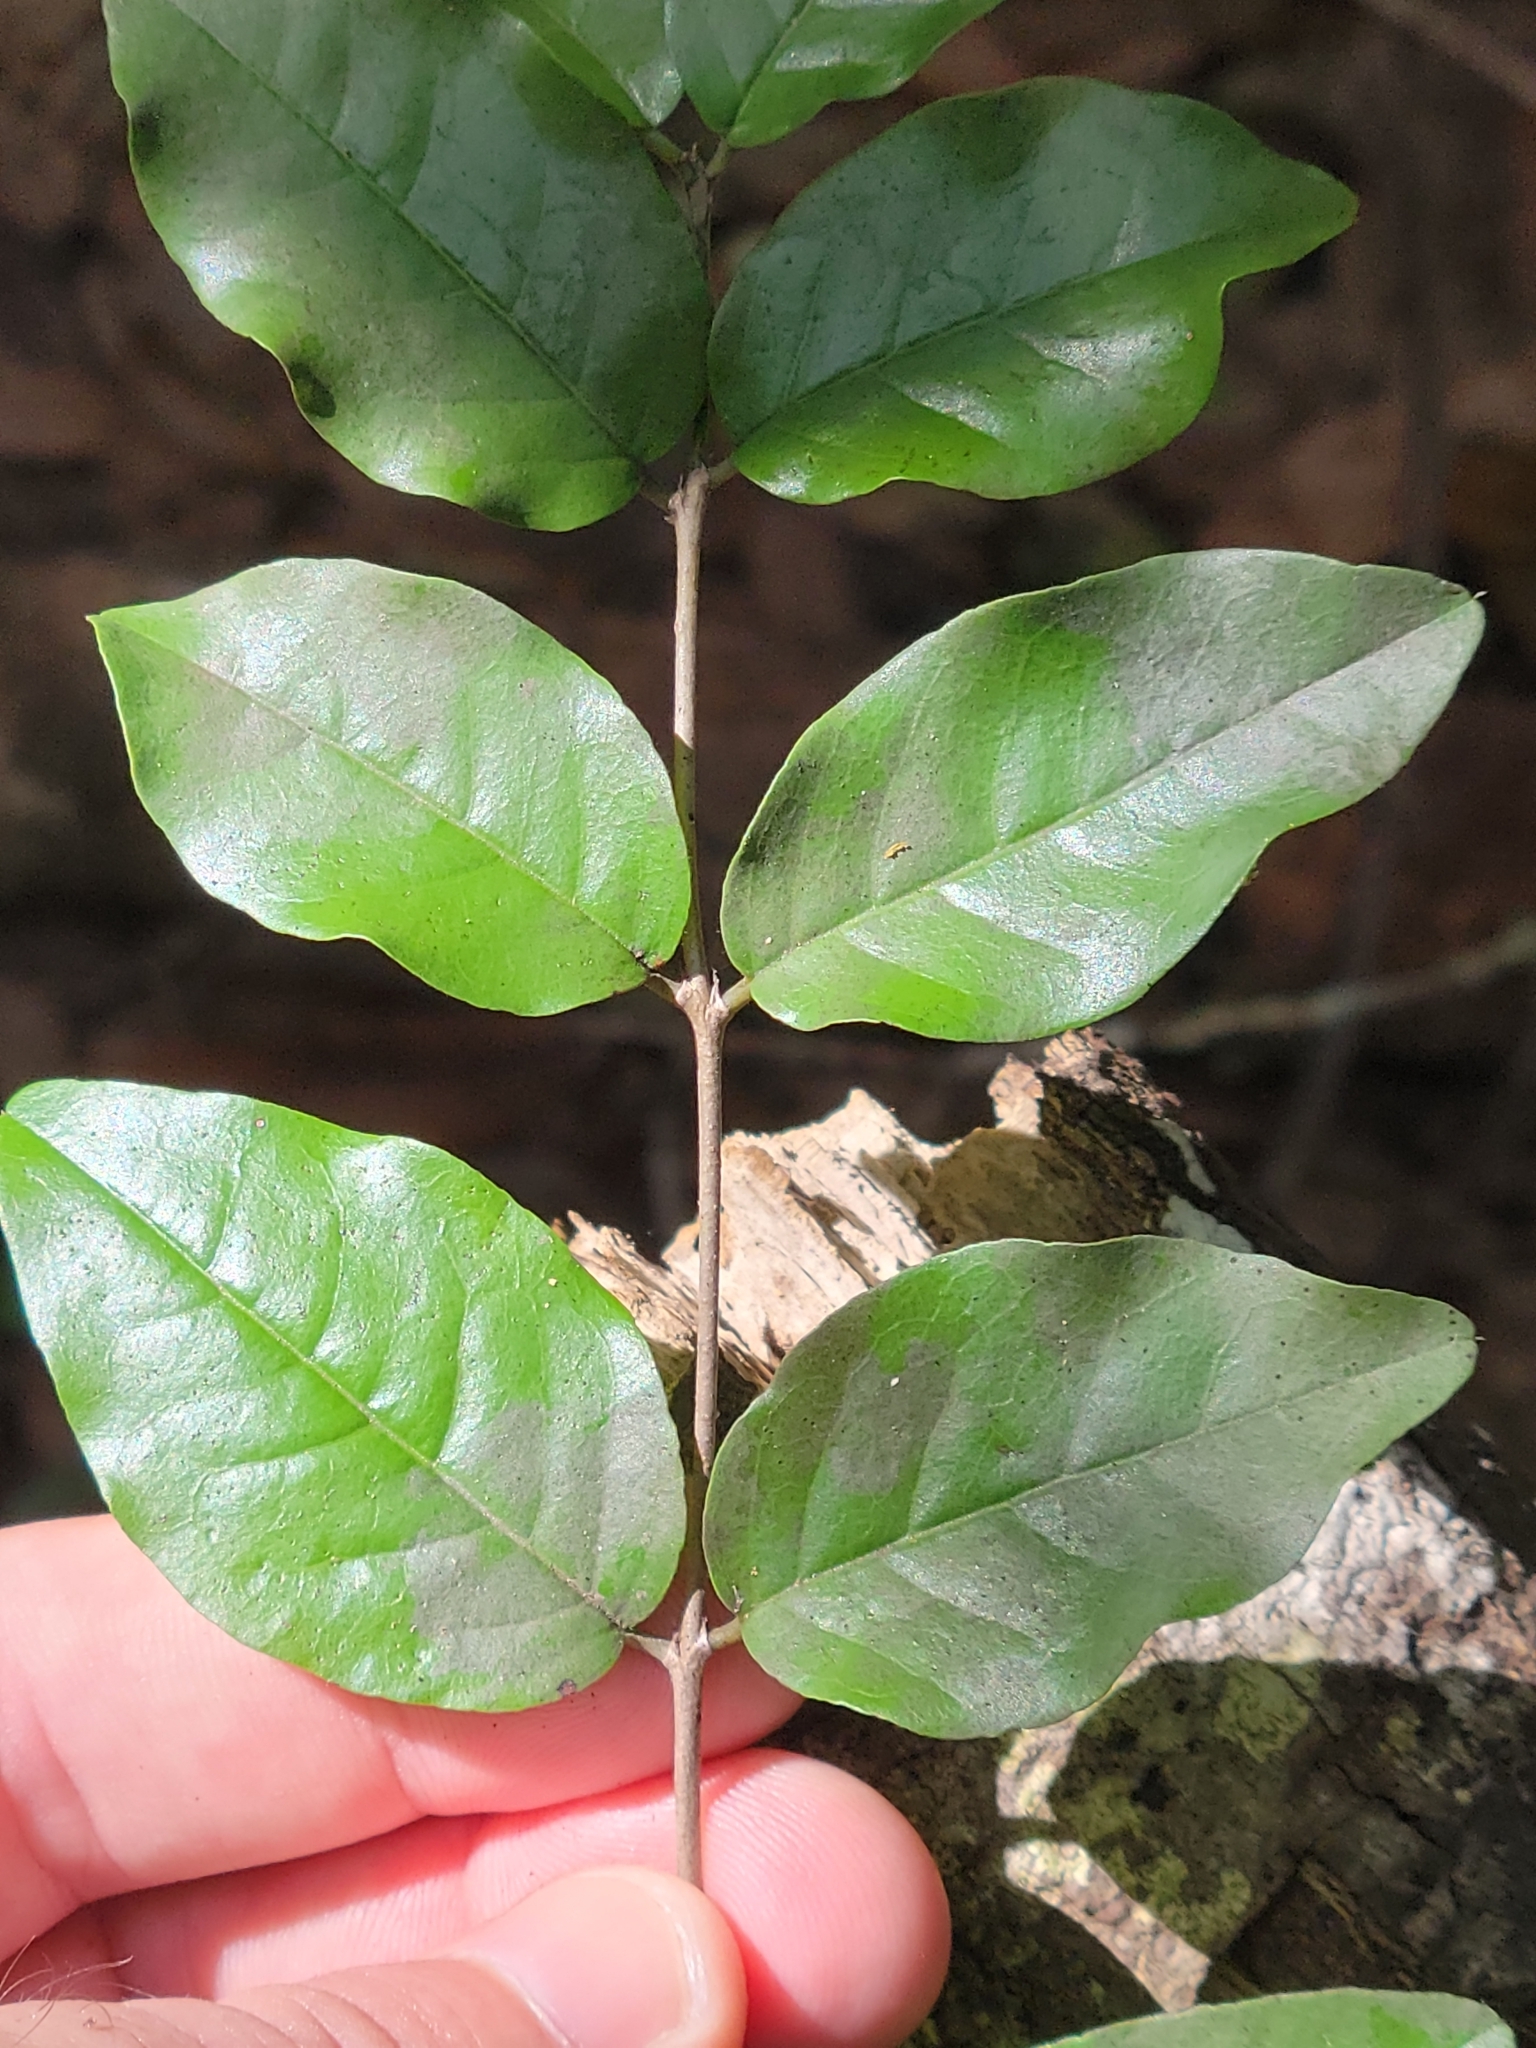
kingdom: Plantae
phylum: Tracheophyta
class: Magnoliopsida
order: Rosales
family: Rhamnaceae
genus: Krugiodendron
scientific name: Krugiodendron ferreum
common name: Iron wood
